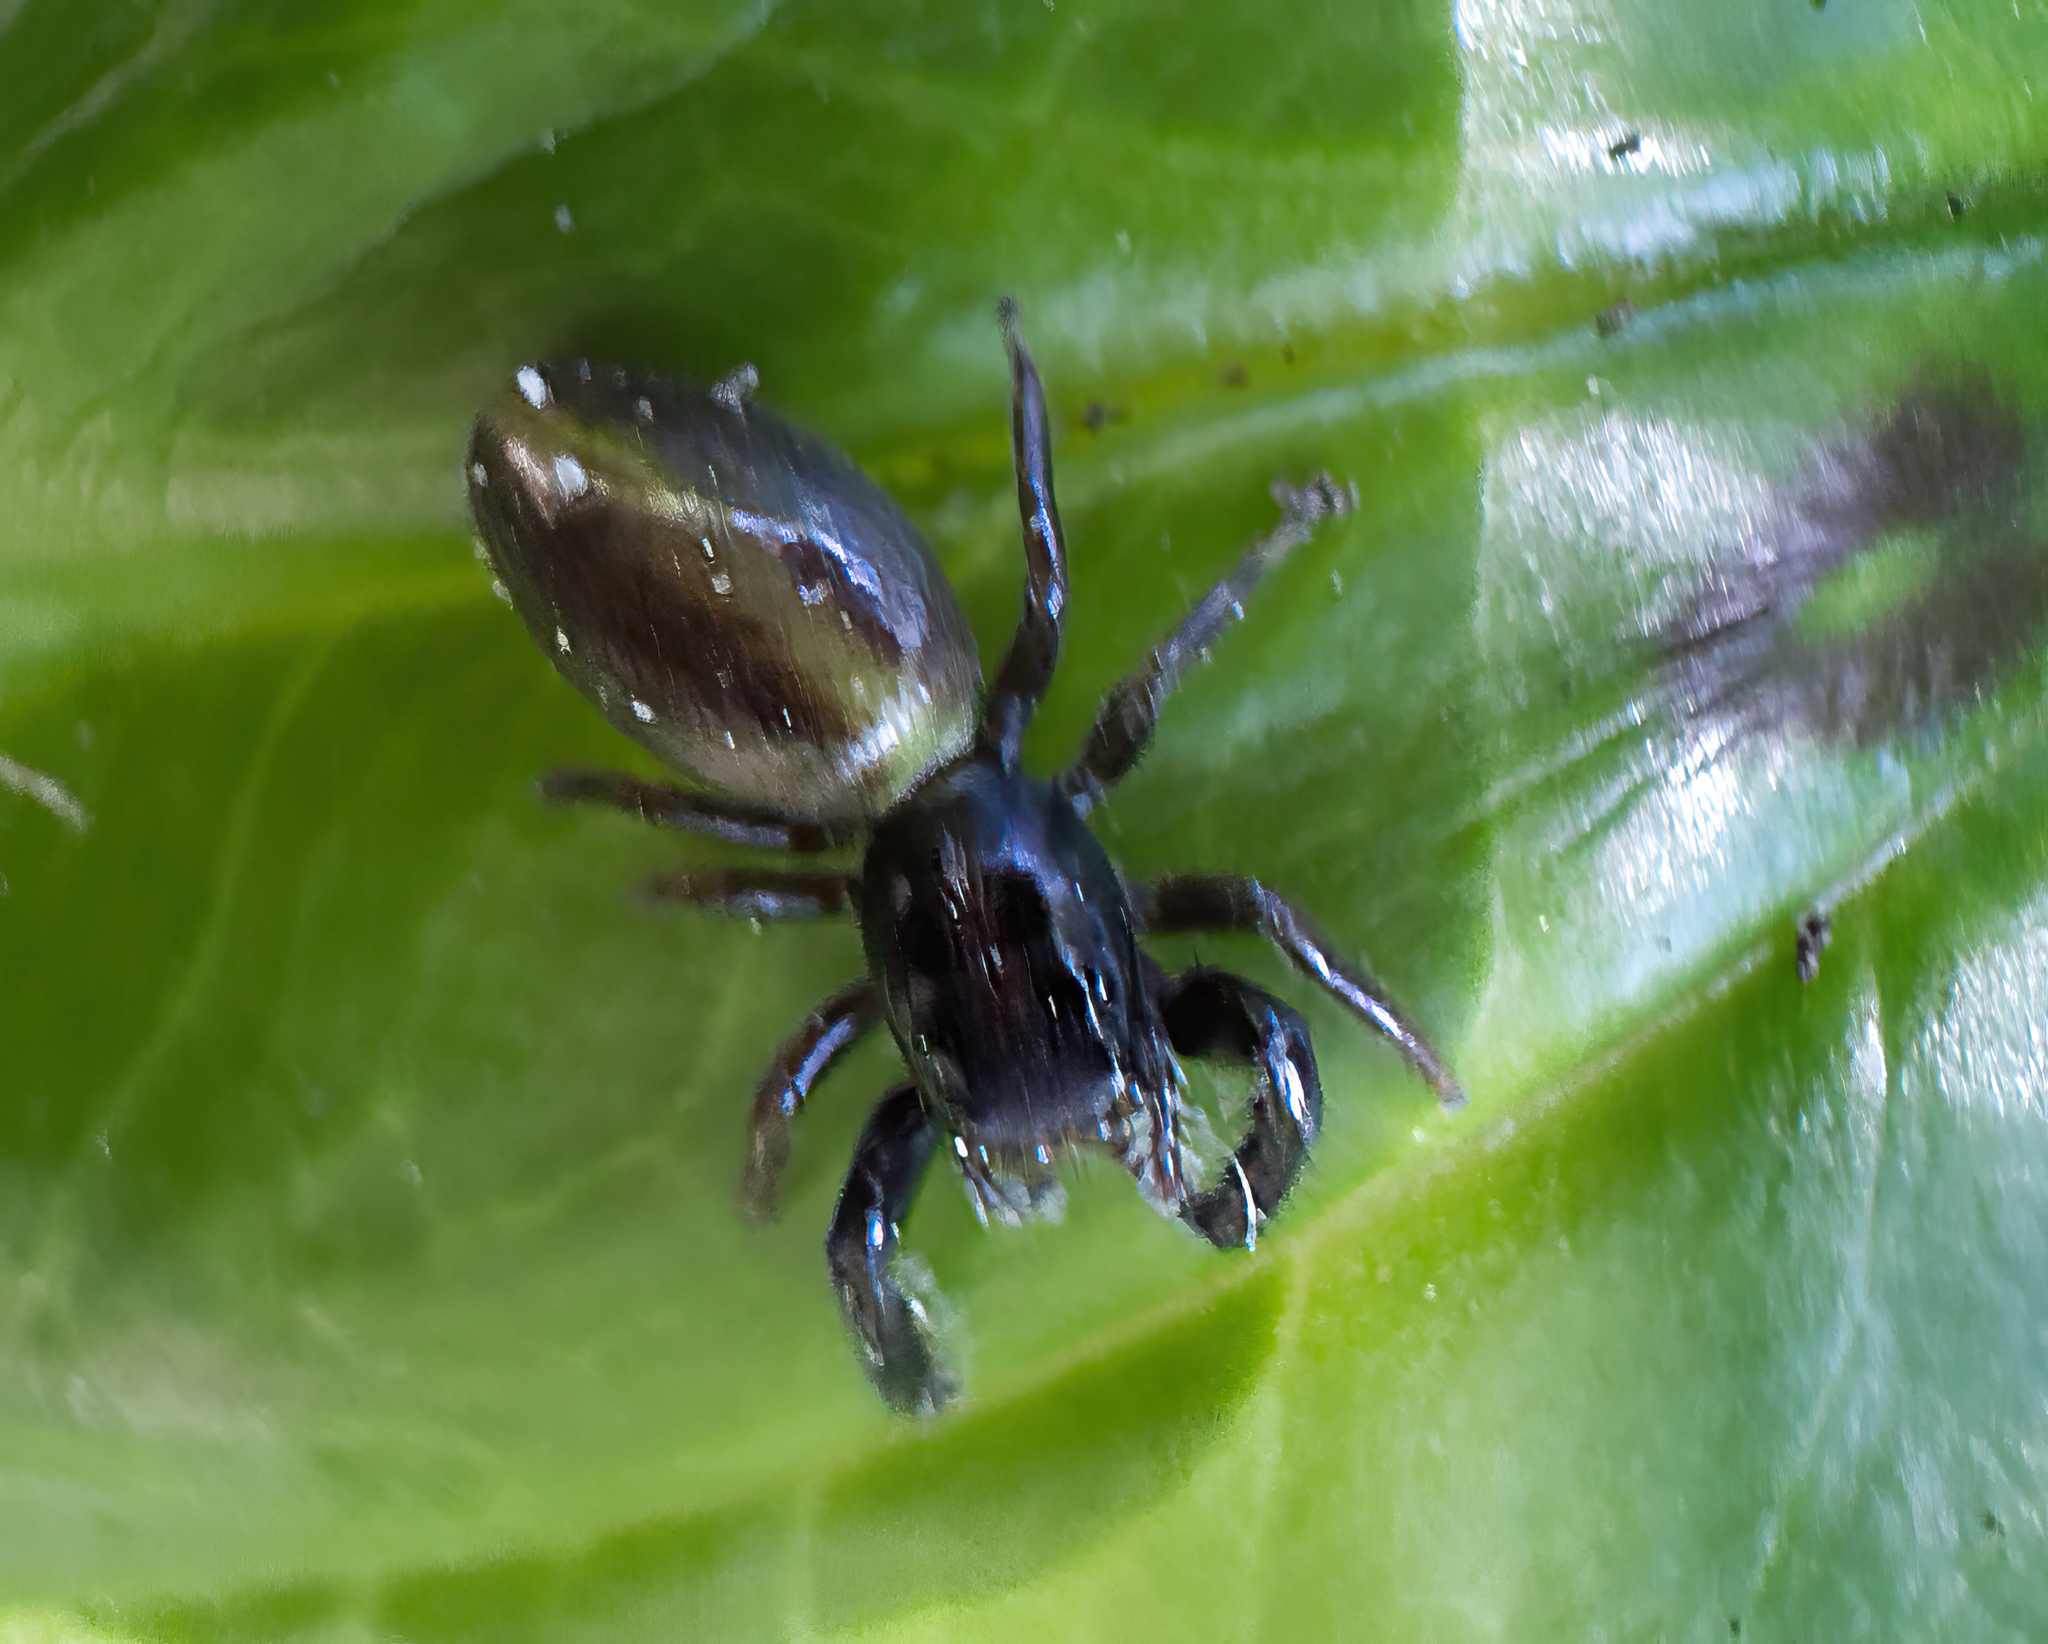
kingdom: Animalia
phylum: Arthropoda
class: Arachnida
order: Araneae
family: Salticidae
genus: Trite
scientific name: Trite planiceps
